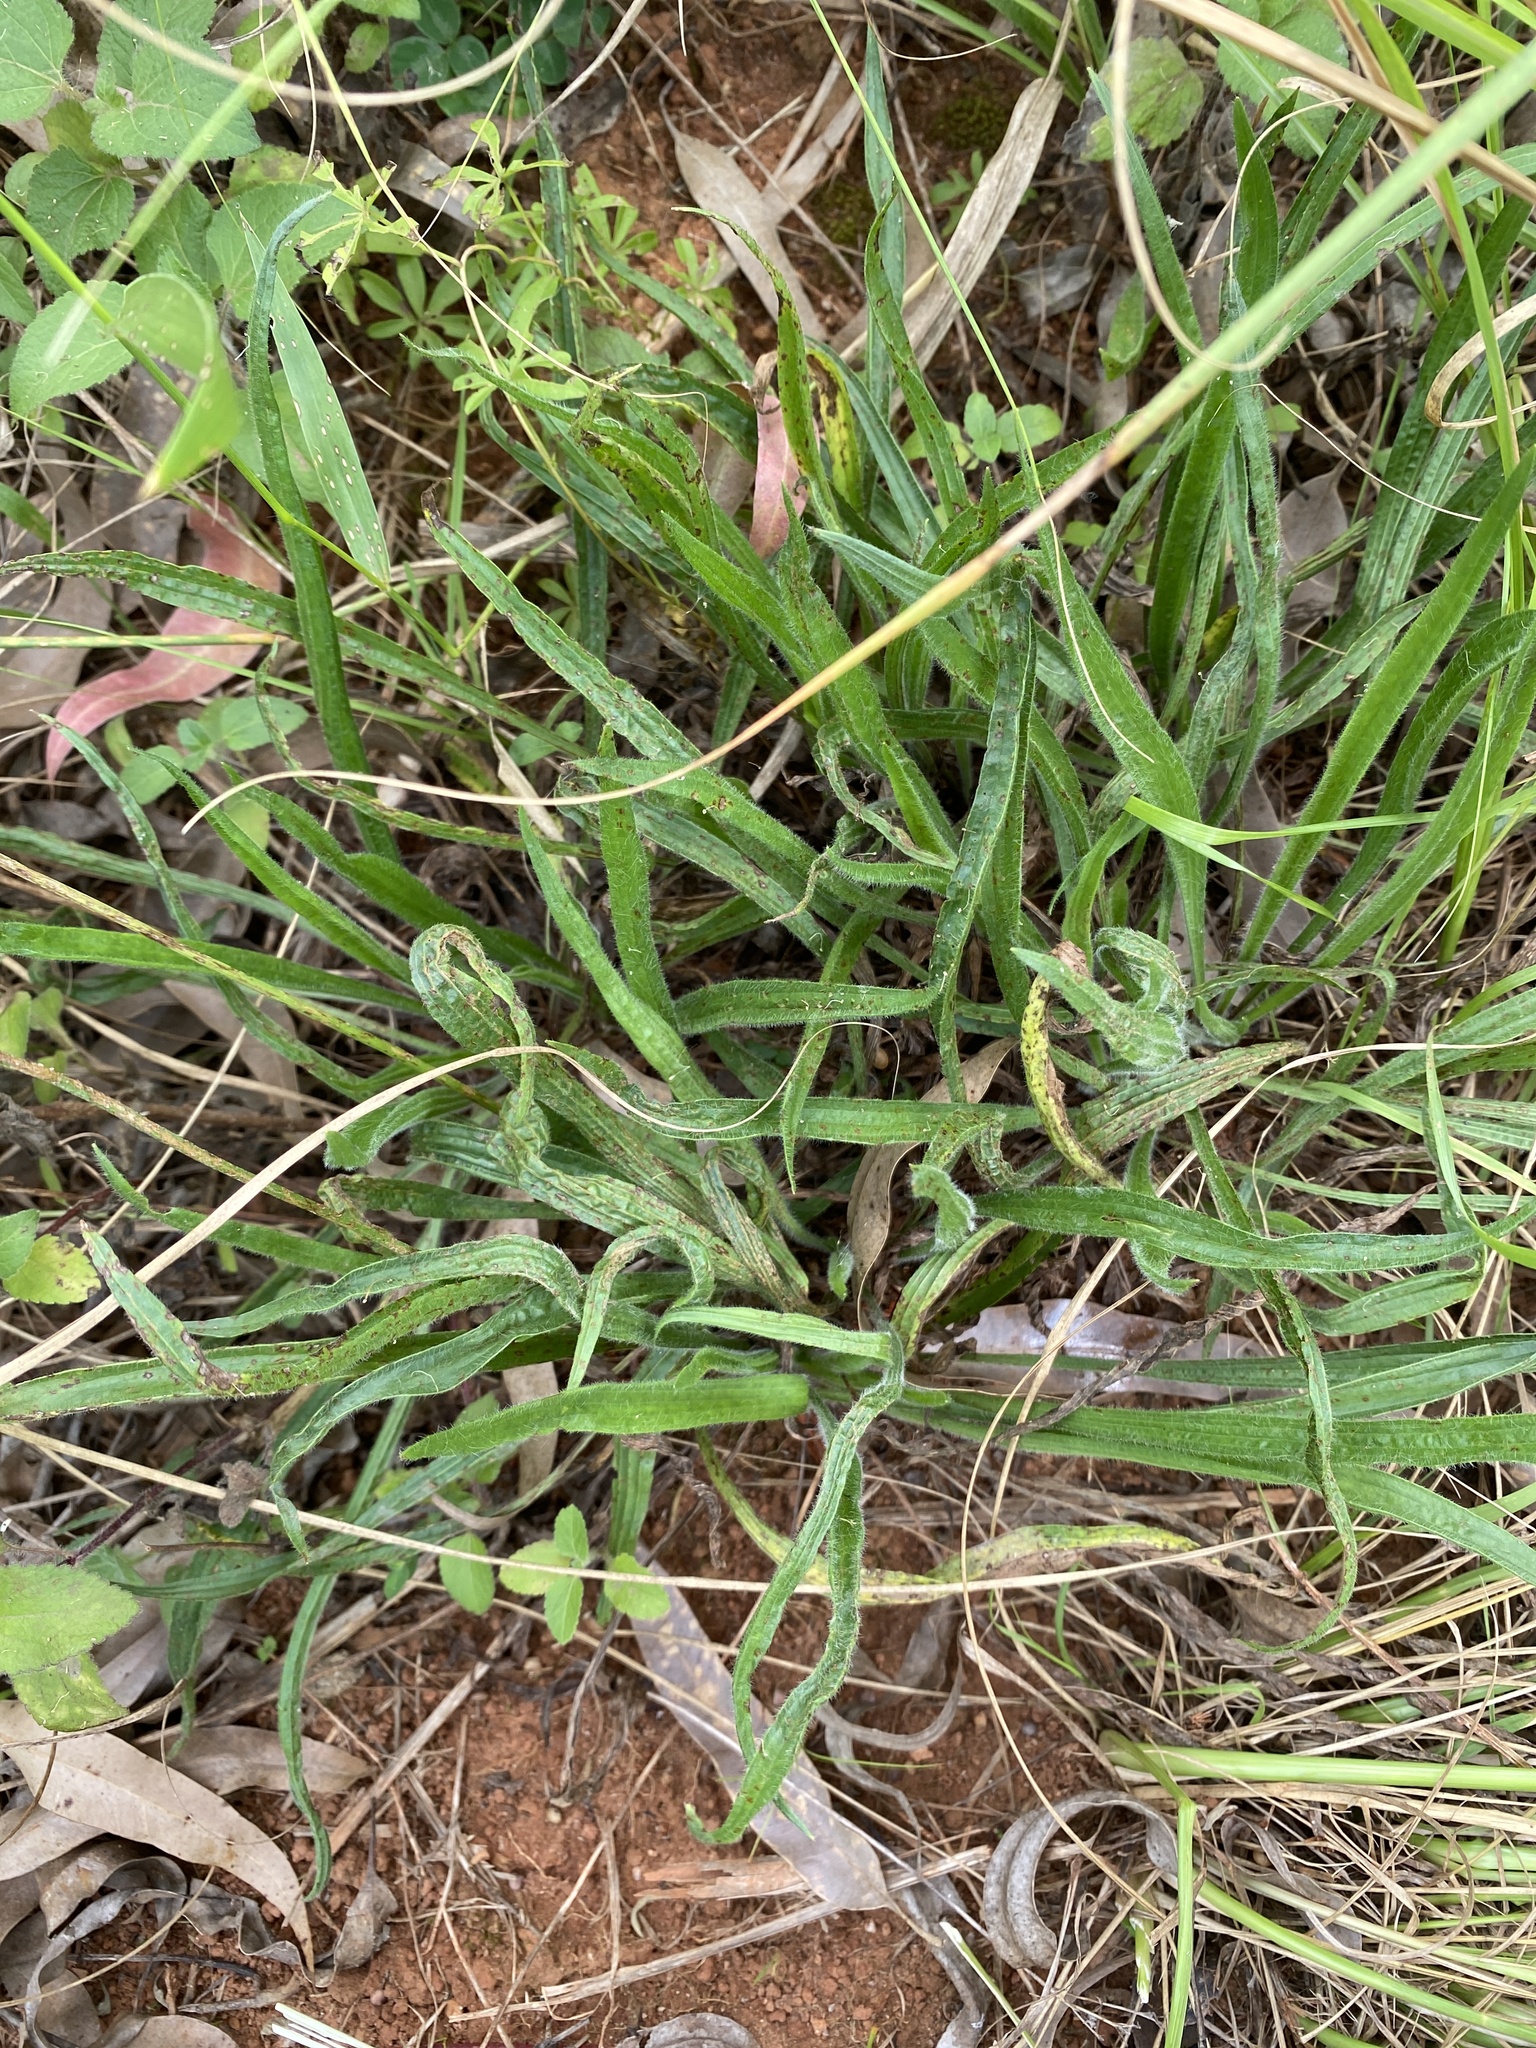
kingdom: Plantae
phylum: Tracheophyta
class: Magnoliopsida
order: Lamiales
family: Plantaginaceae
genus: Plantago
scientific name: Plantago lanceolata
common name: Ribwort plantain
